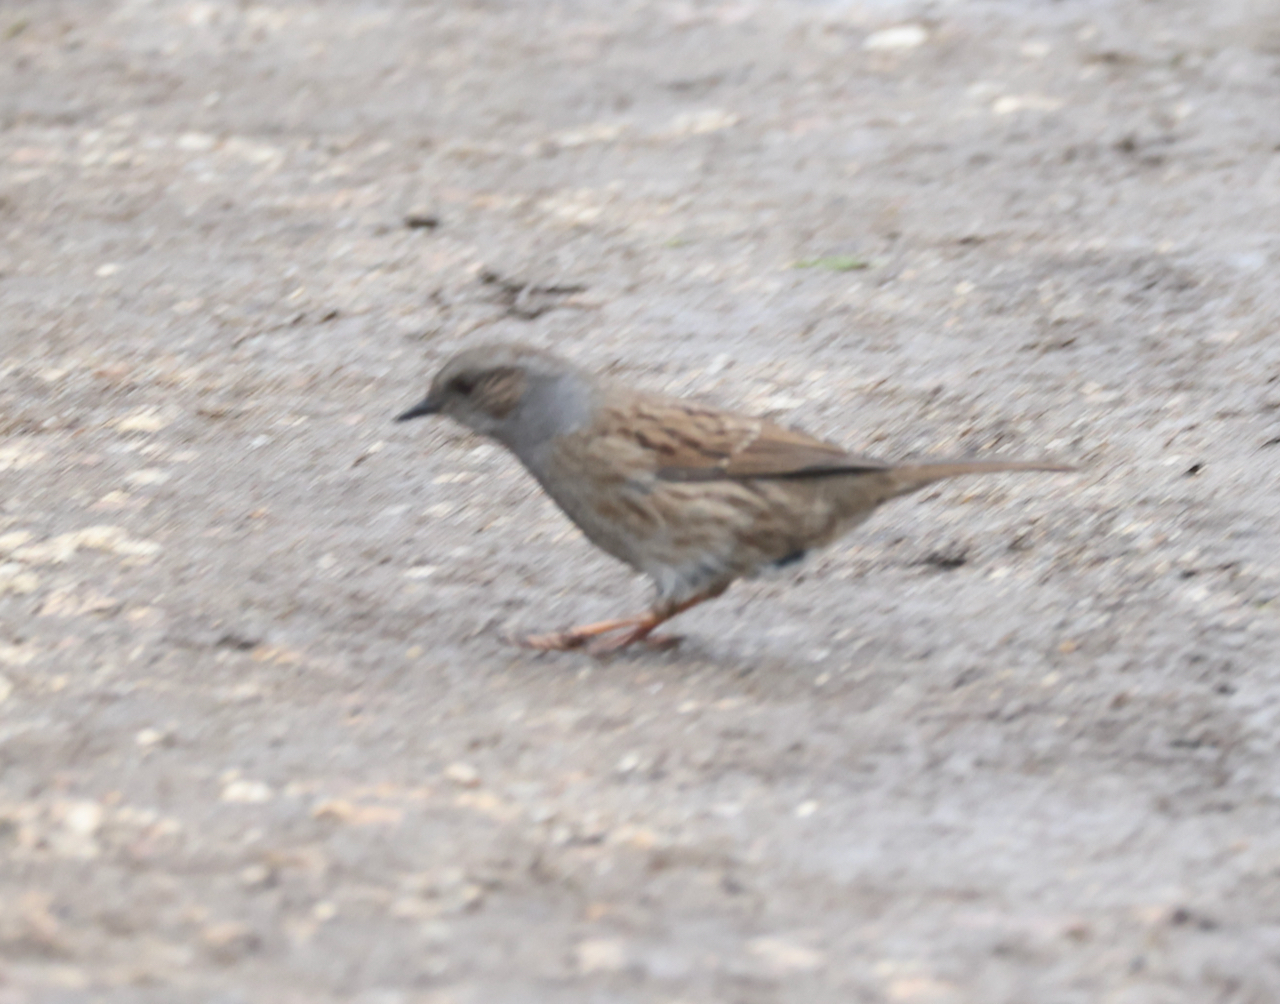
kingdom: Animalia
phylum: Chordata
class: Aves
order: Passeriformes
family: Prunellidae
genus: Prunella
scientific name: Prunella modularis
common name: Dunnock
